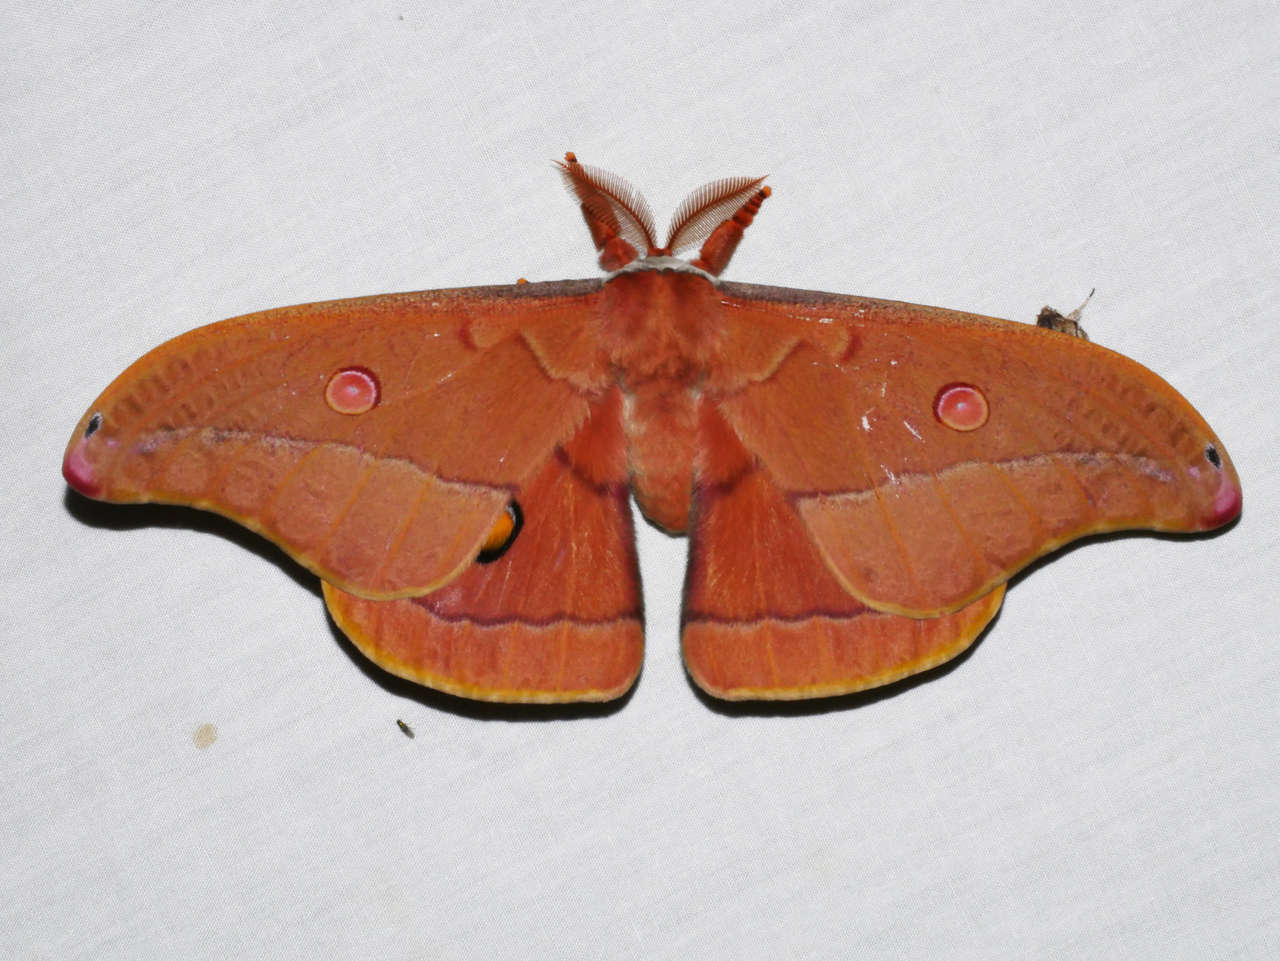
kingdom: Animalia
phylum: Arthropoda
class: Insecta
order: Lepidoptera
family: Saturniidae
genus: Opodiphthera
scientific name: Opodiphthera
